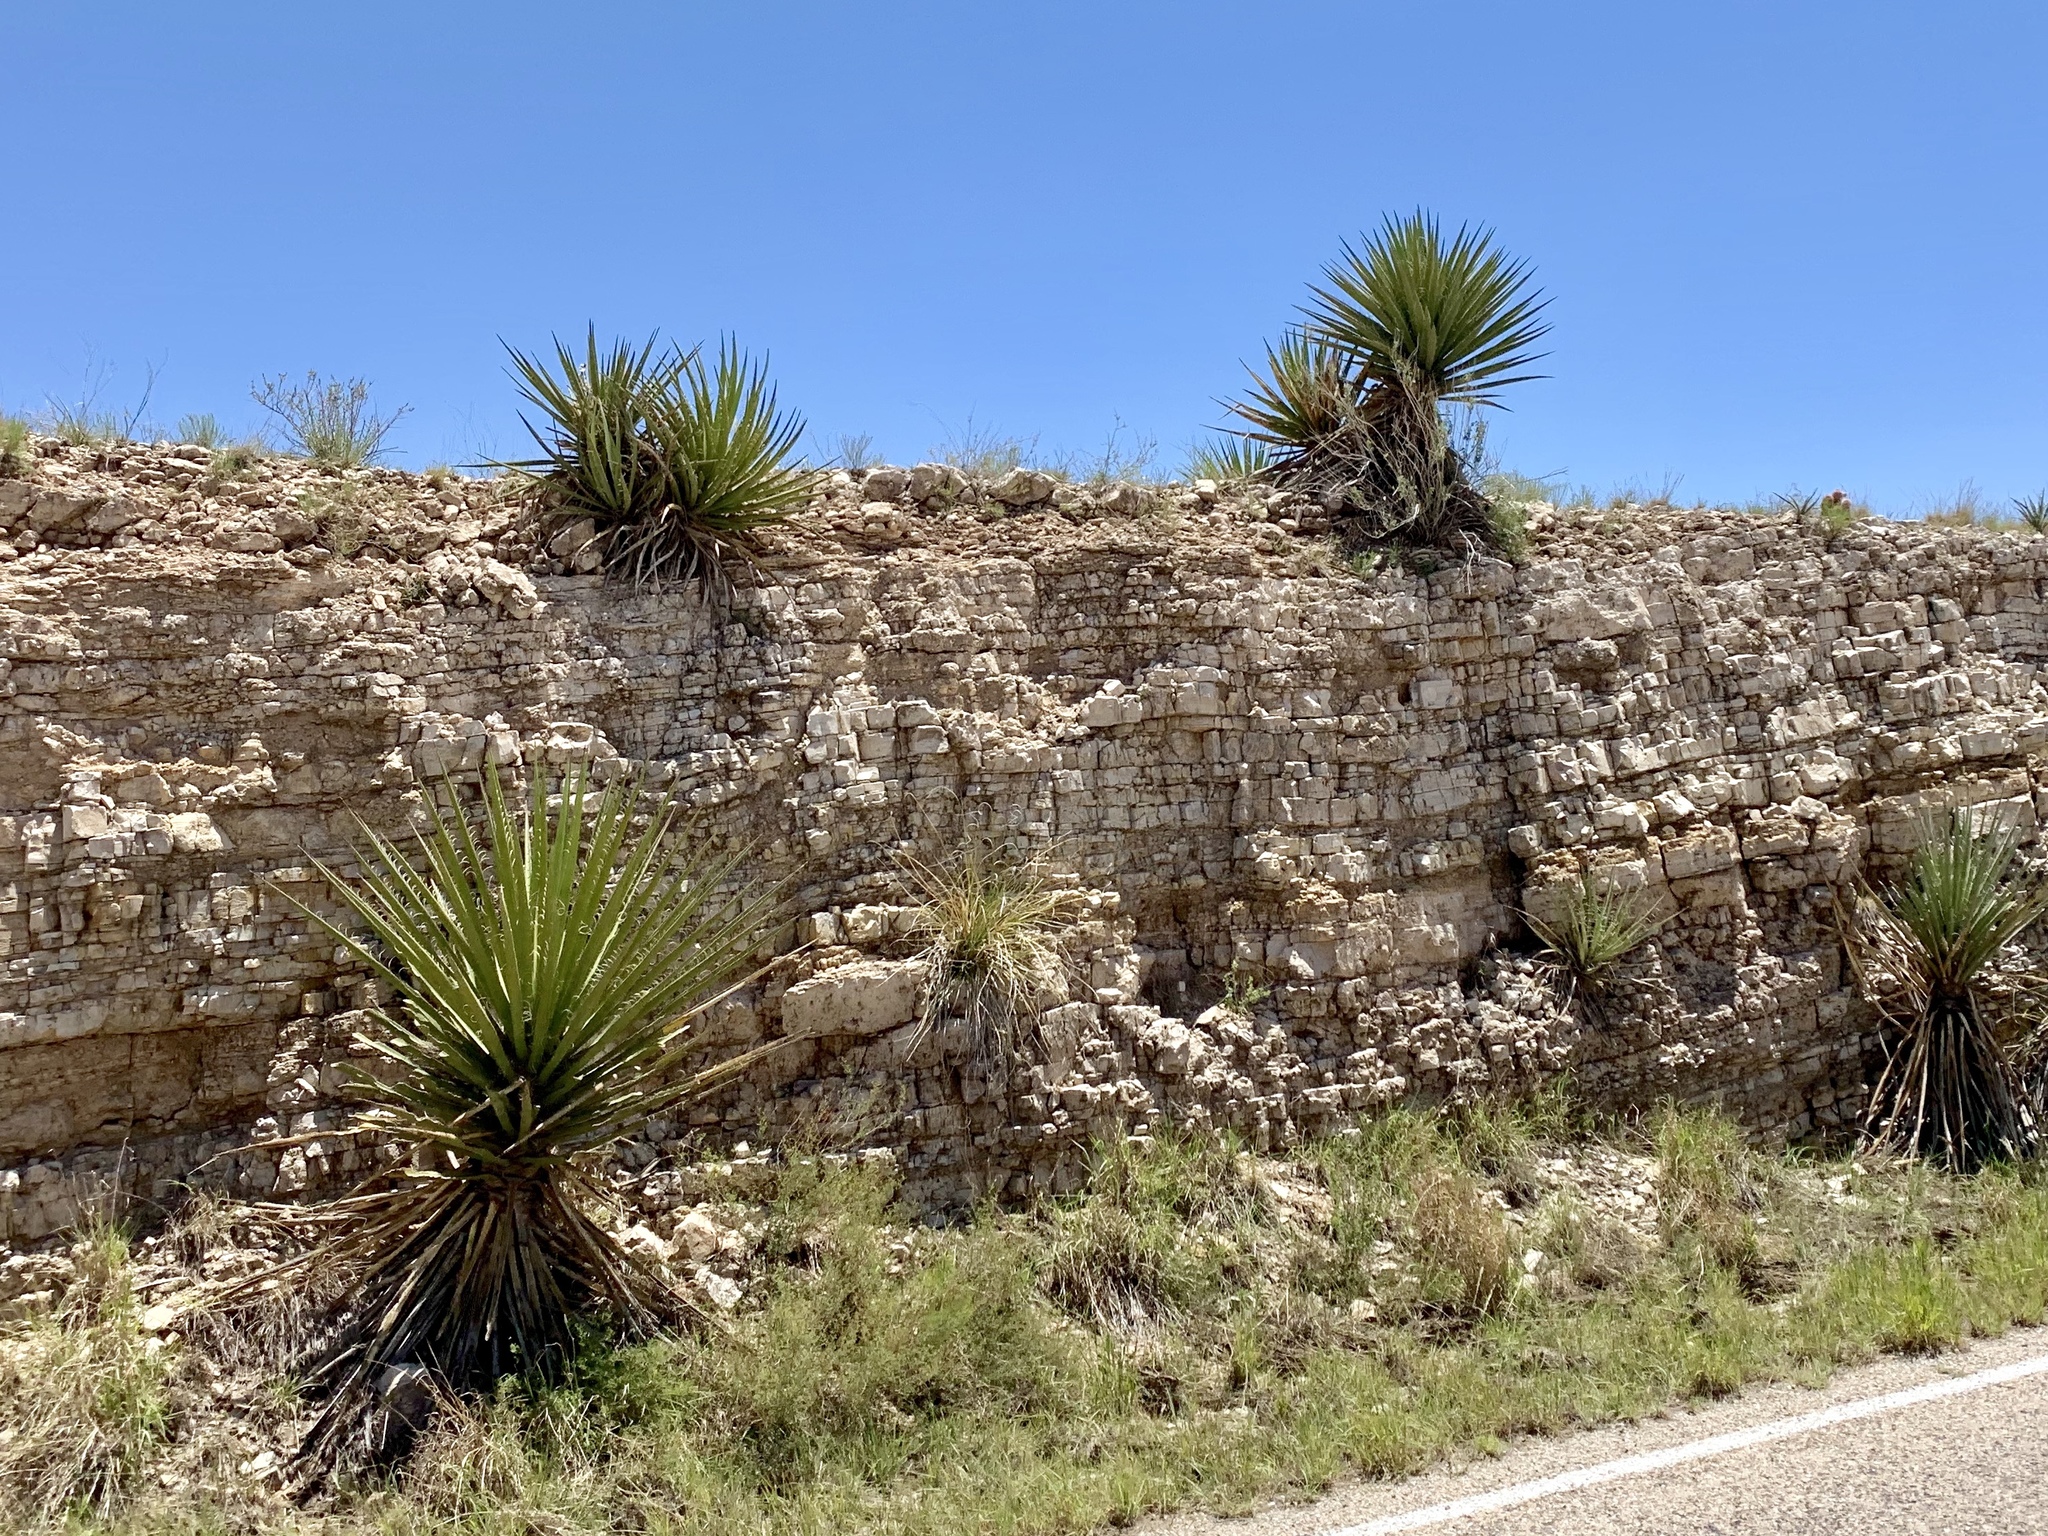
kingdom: Plantae
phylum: Tracheophyta
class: Liliopsida
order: Asparagales
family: Asparagaceae
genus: Yucca
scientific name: Yucca treculiana
